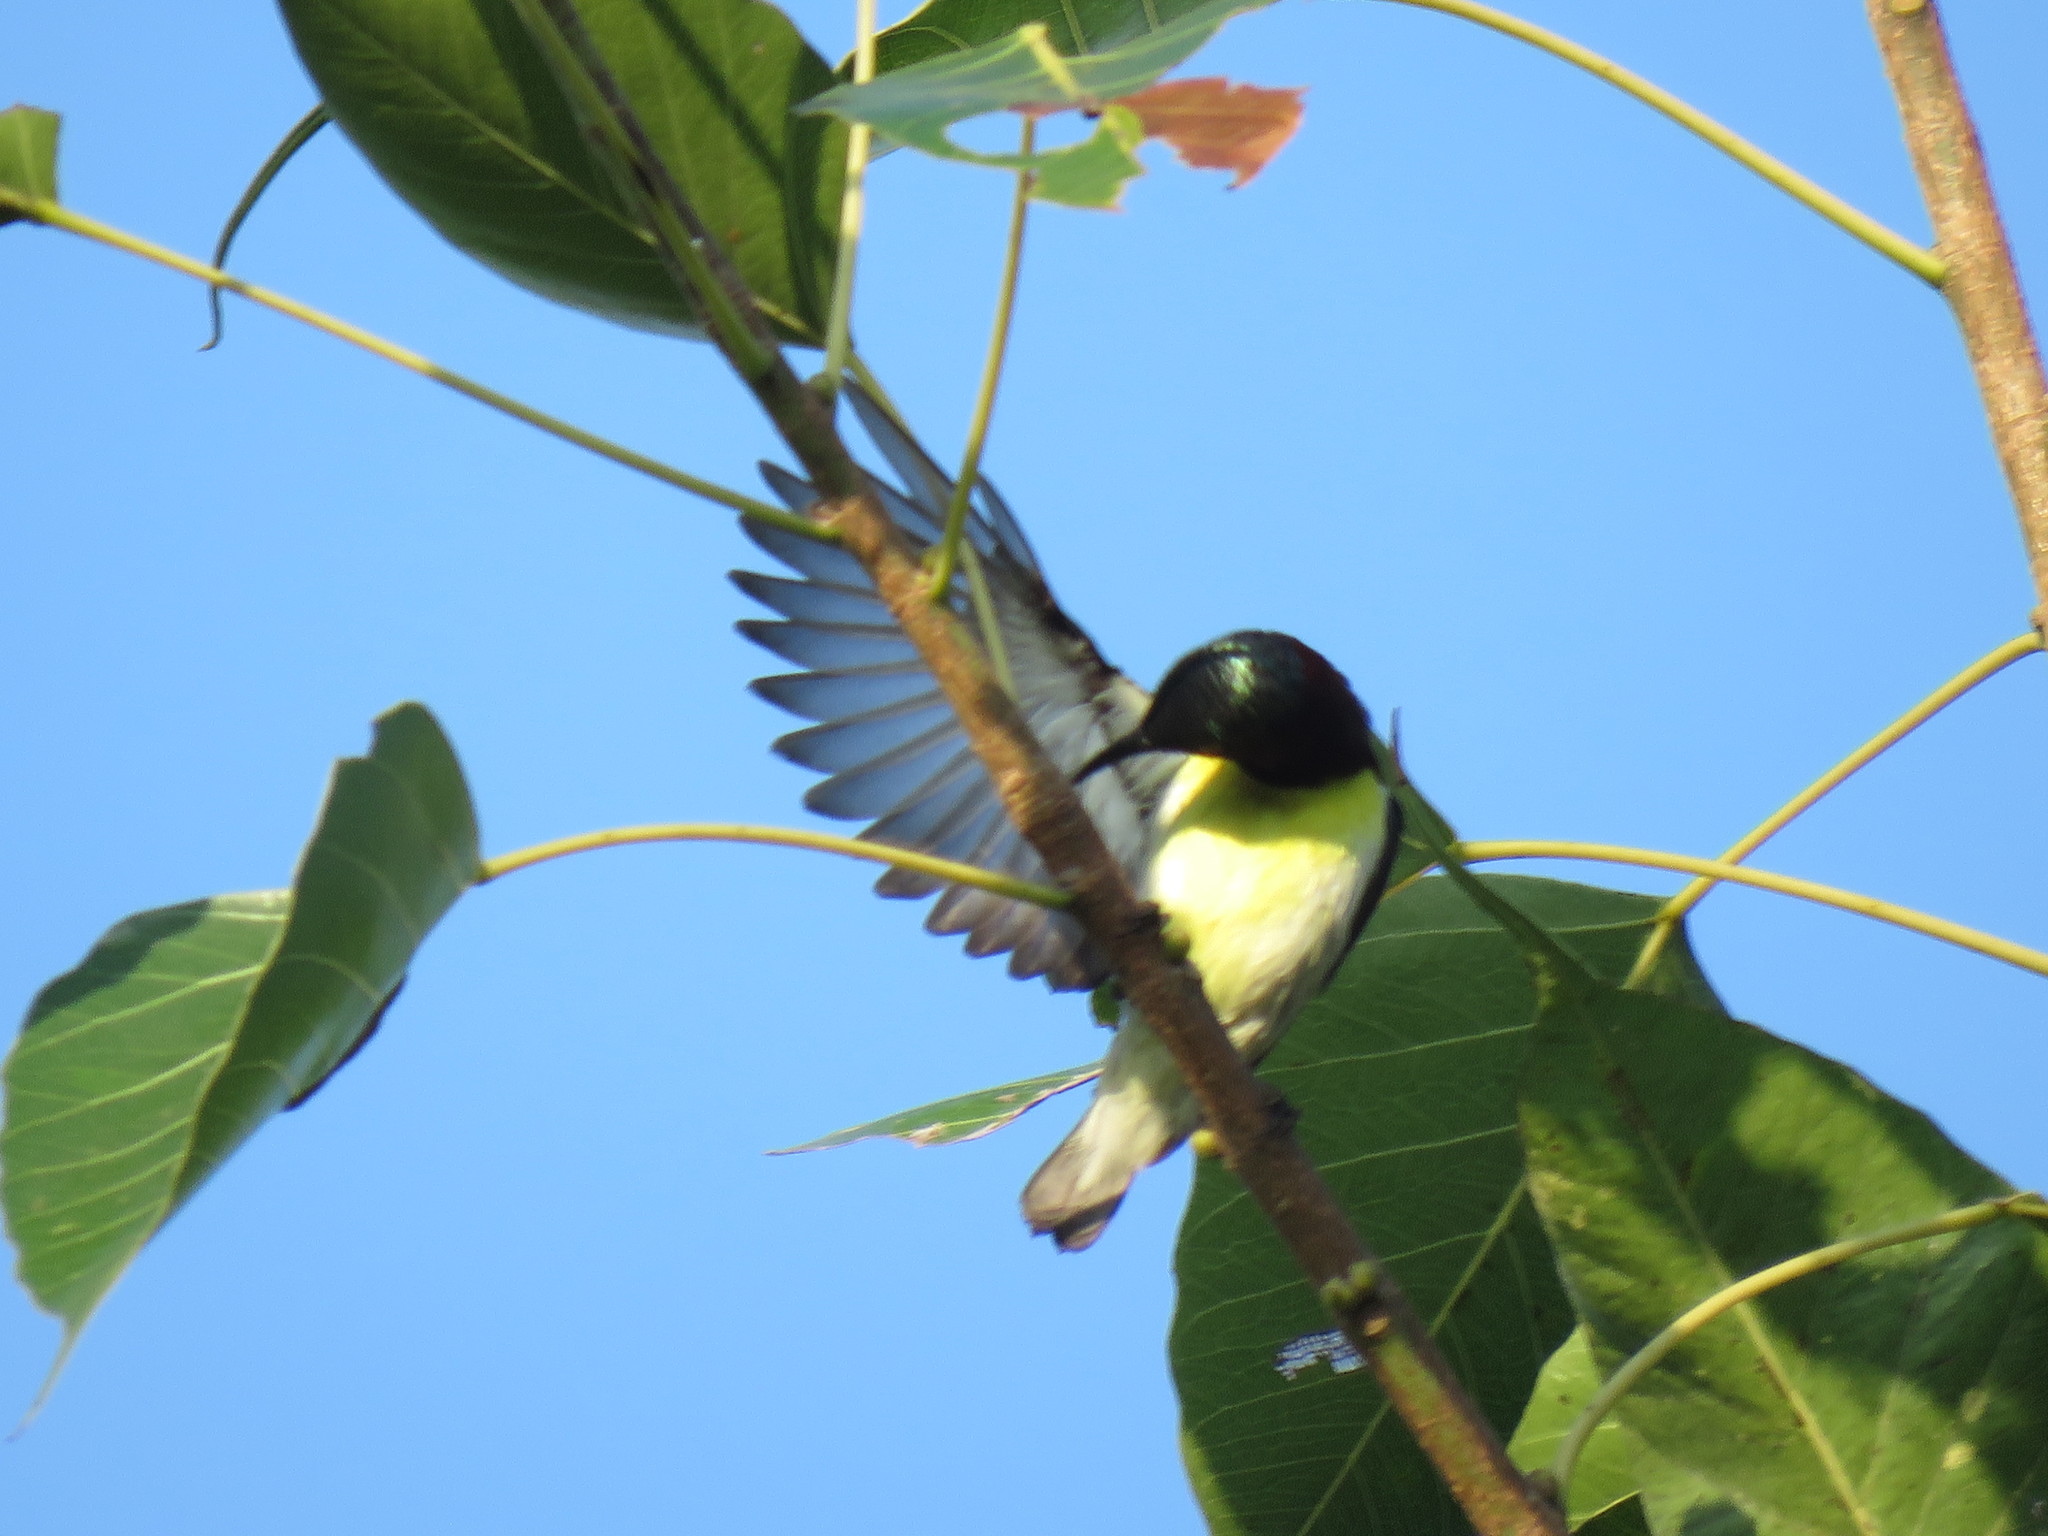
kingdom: Animalia
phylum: Chordata
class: Aves
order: Passeriformes
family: Nectariniidae
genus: Leptocoma
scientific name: Leptocoma zeylonica
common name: Purple-rumped sunbird
